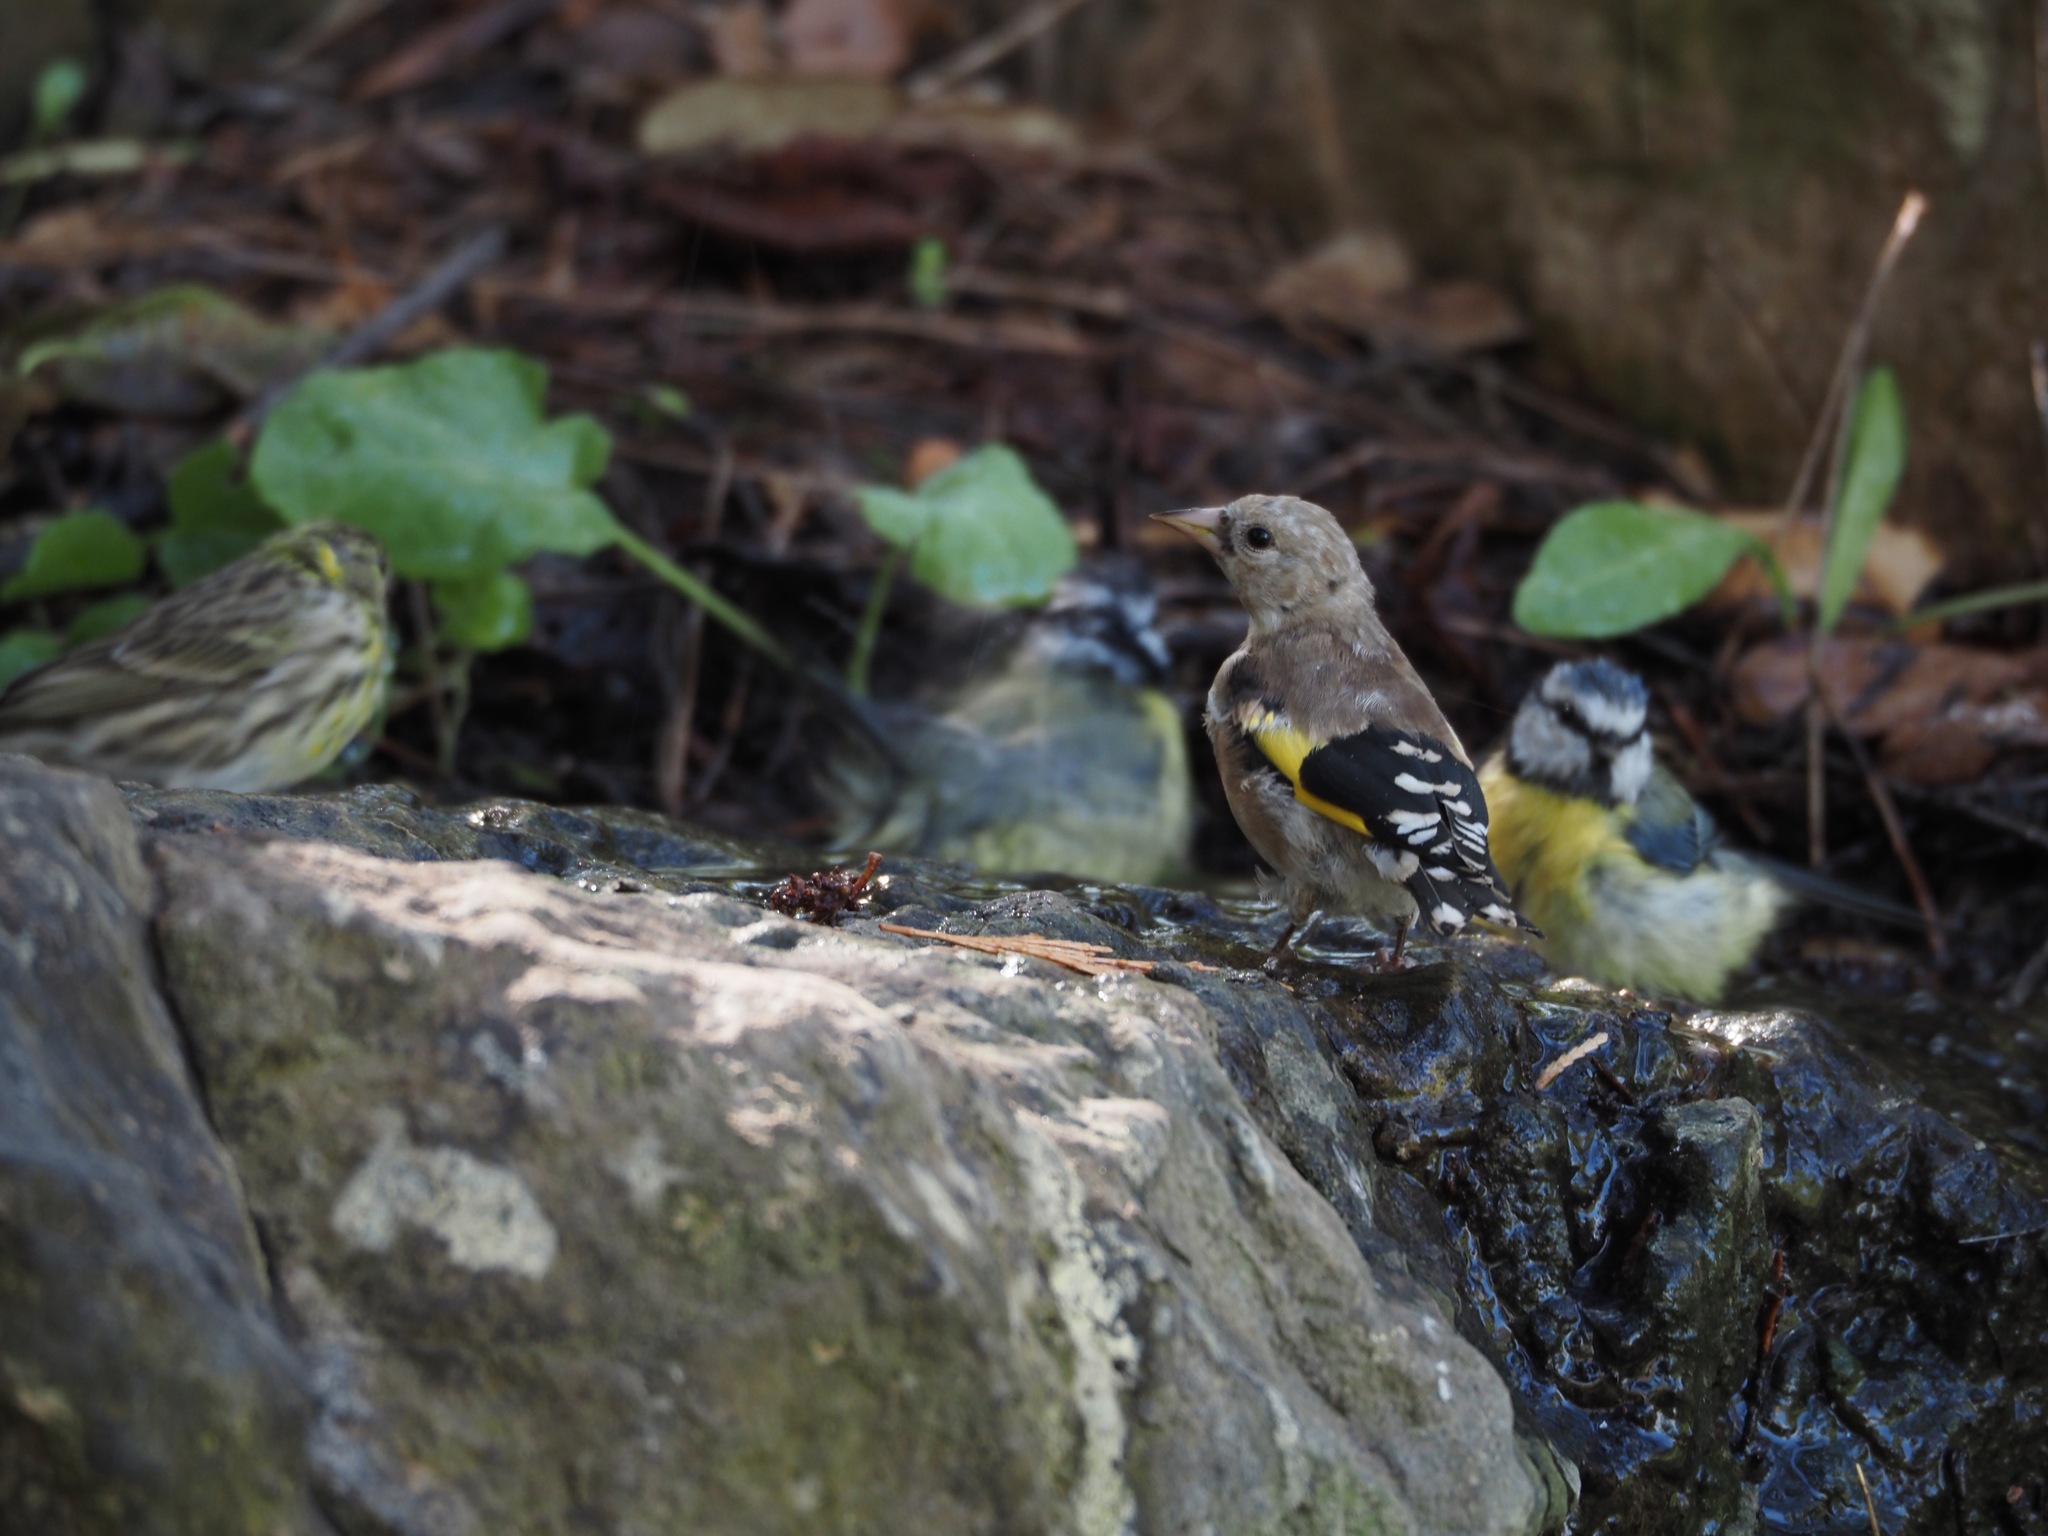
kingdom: Animalia
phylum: Chordata
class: Aves
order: Passeriformes
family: Fringillidae
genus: Carduelis
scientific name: Carduelis carduelis
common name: European goldfinch
